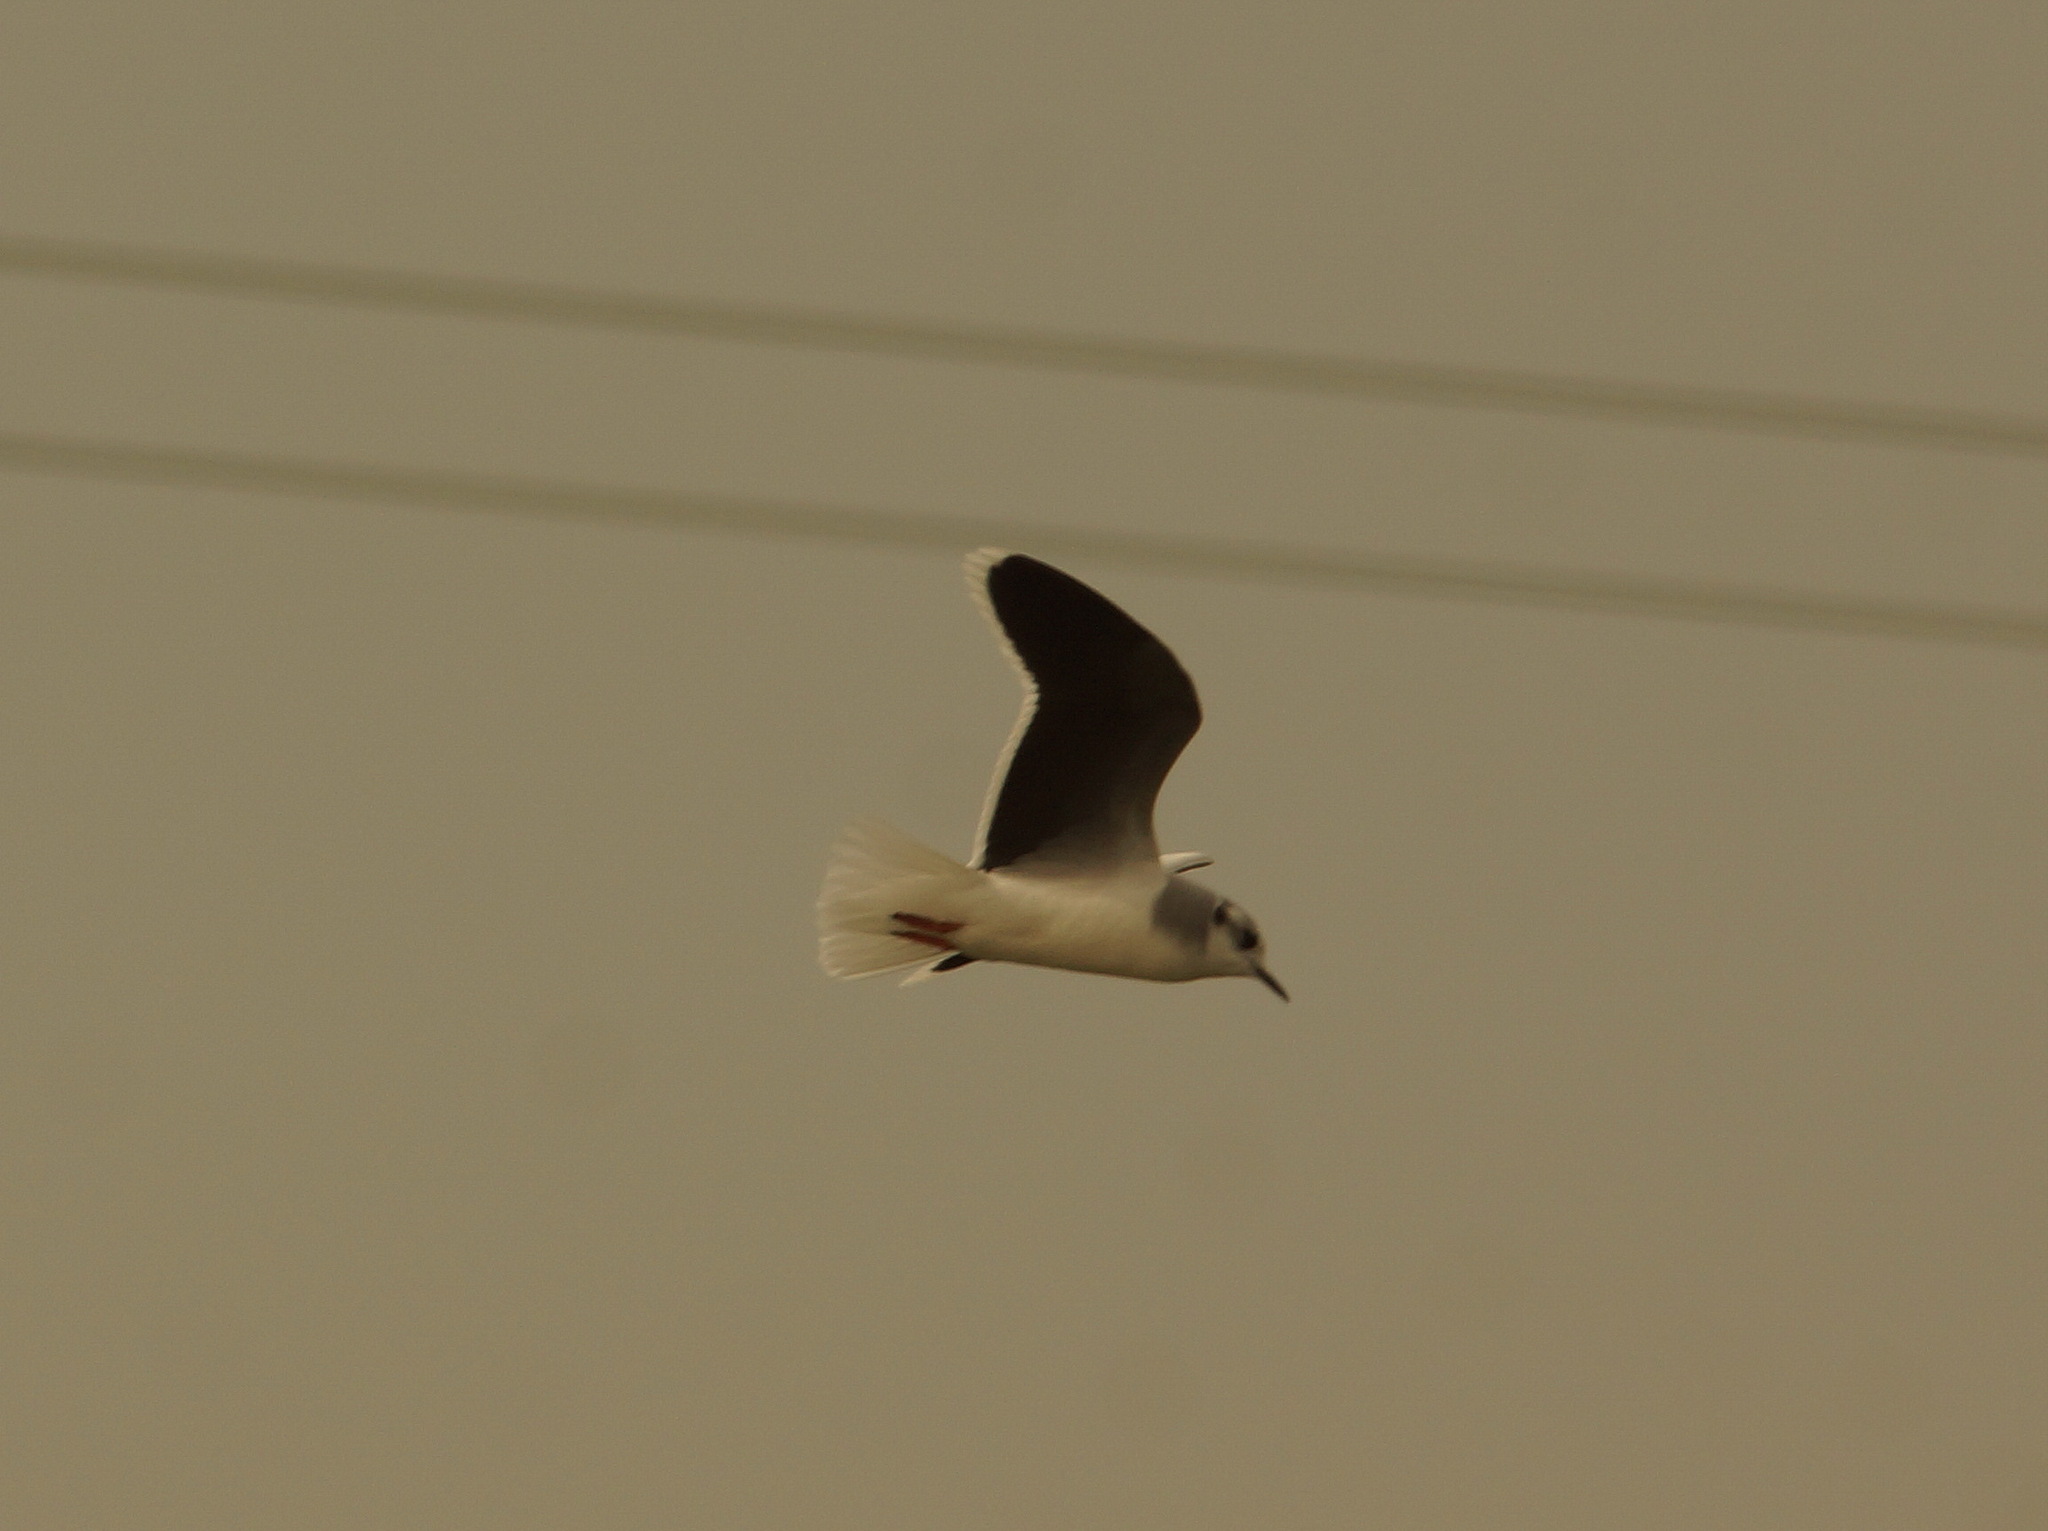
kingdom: Animalia
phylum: Chordata
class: Aves
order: Charadriiformes
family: Laridae
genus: Hydrocoloeus
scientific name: Hydrocoloeus minutus
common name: Little gull
